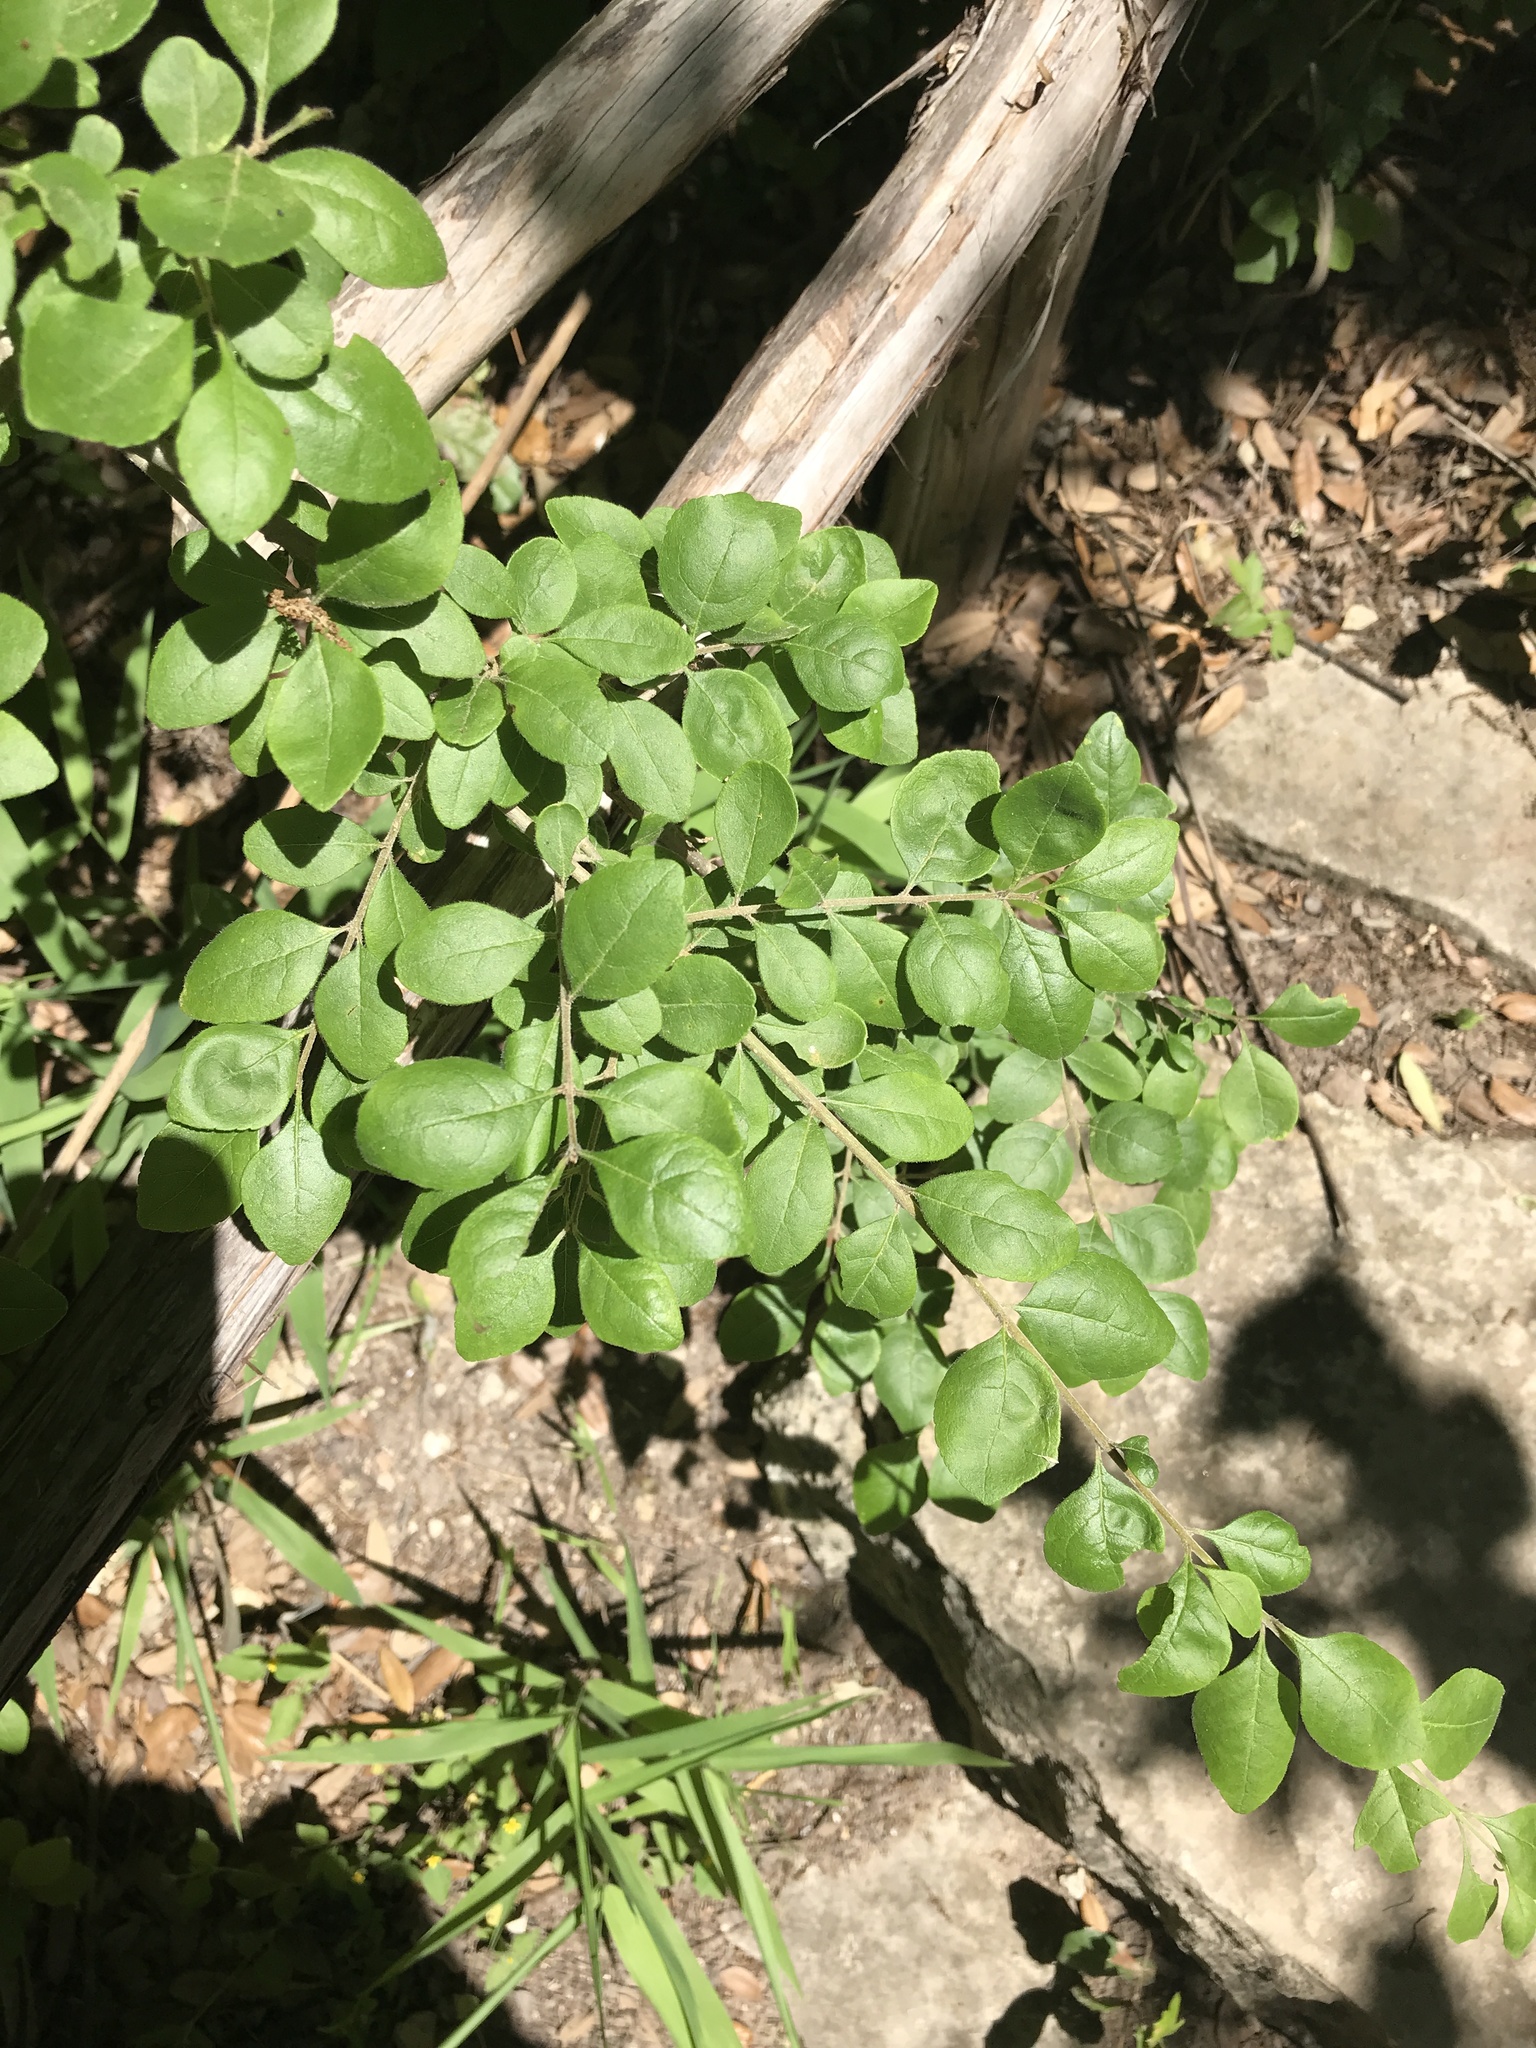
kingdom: Plantae
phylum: Tracheophyta
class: Magnoliopsida
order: Lamiales
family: Oleaceae
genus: Forestiera
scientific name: Forestiera pubescens
